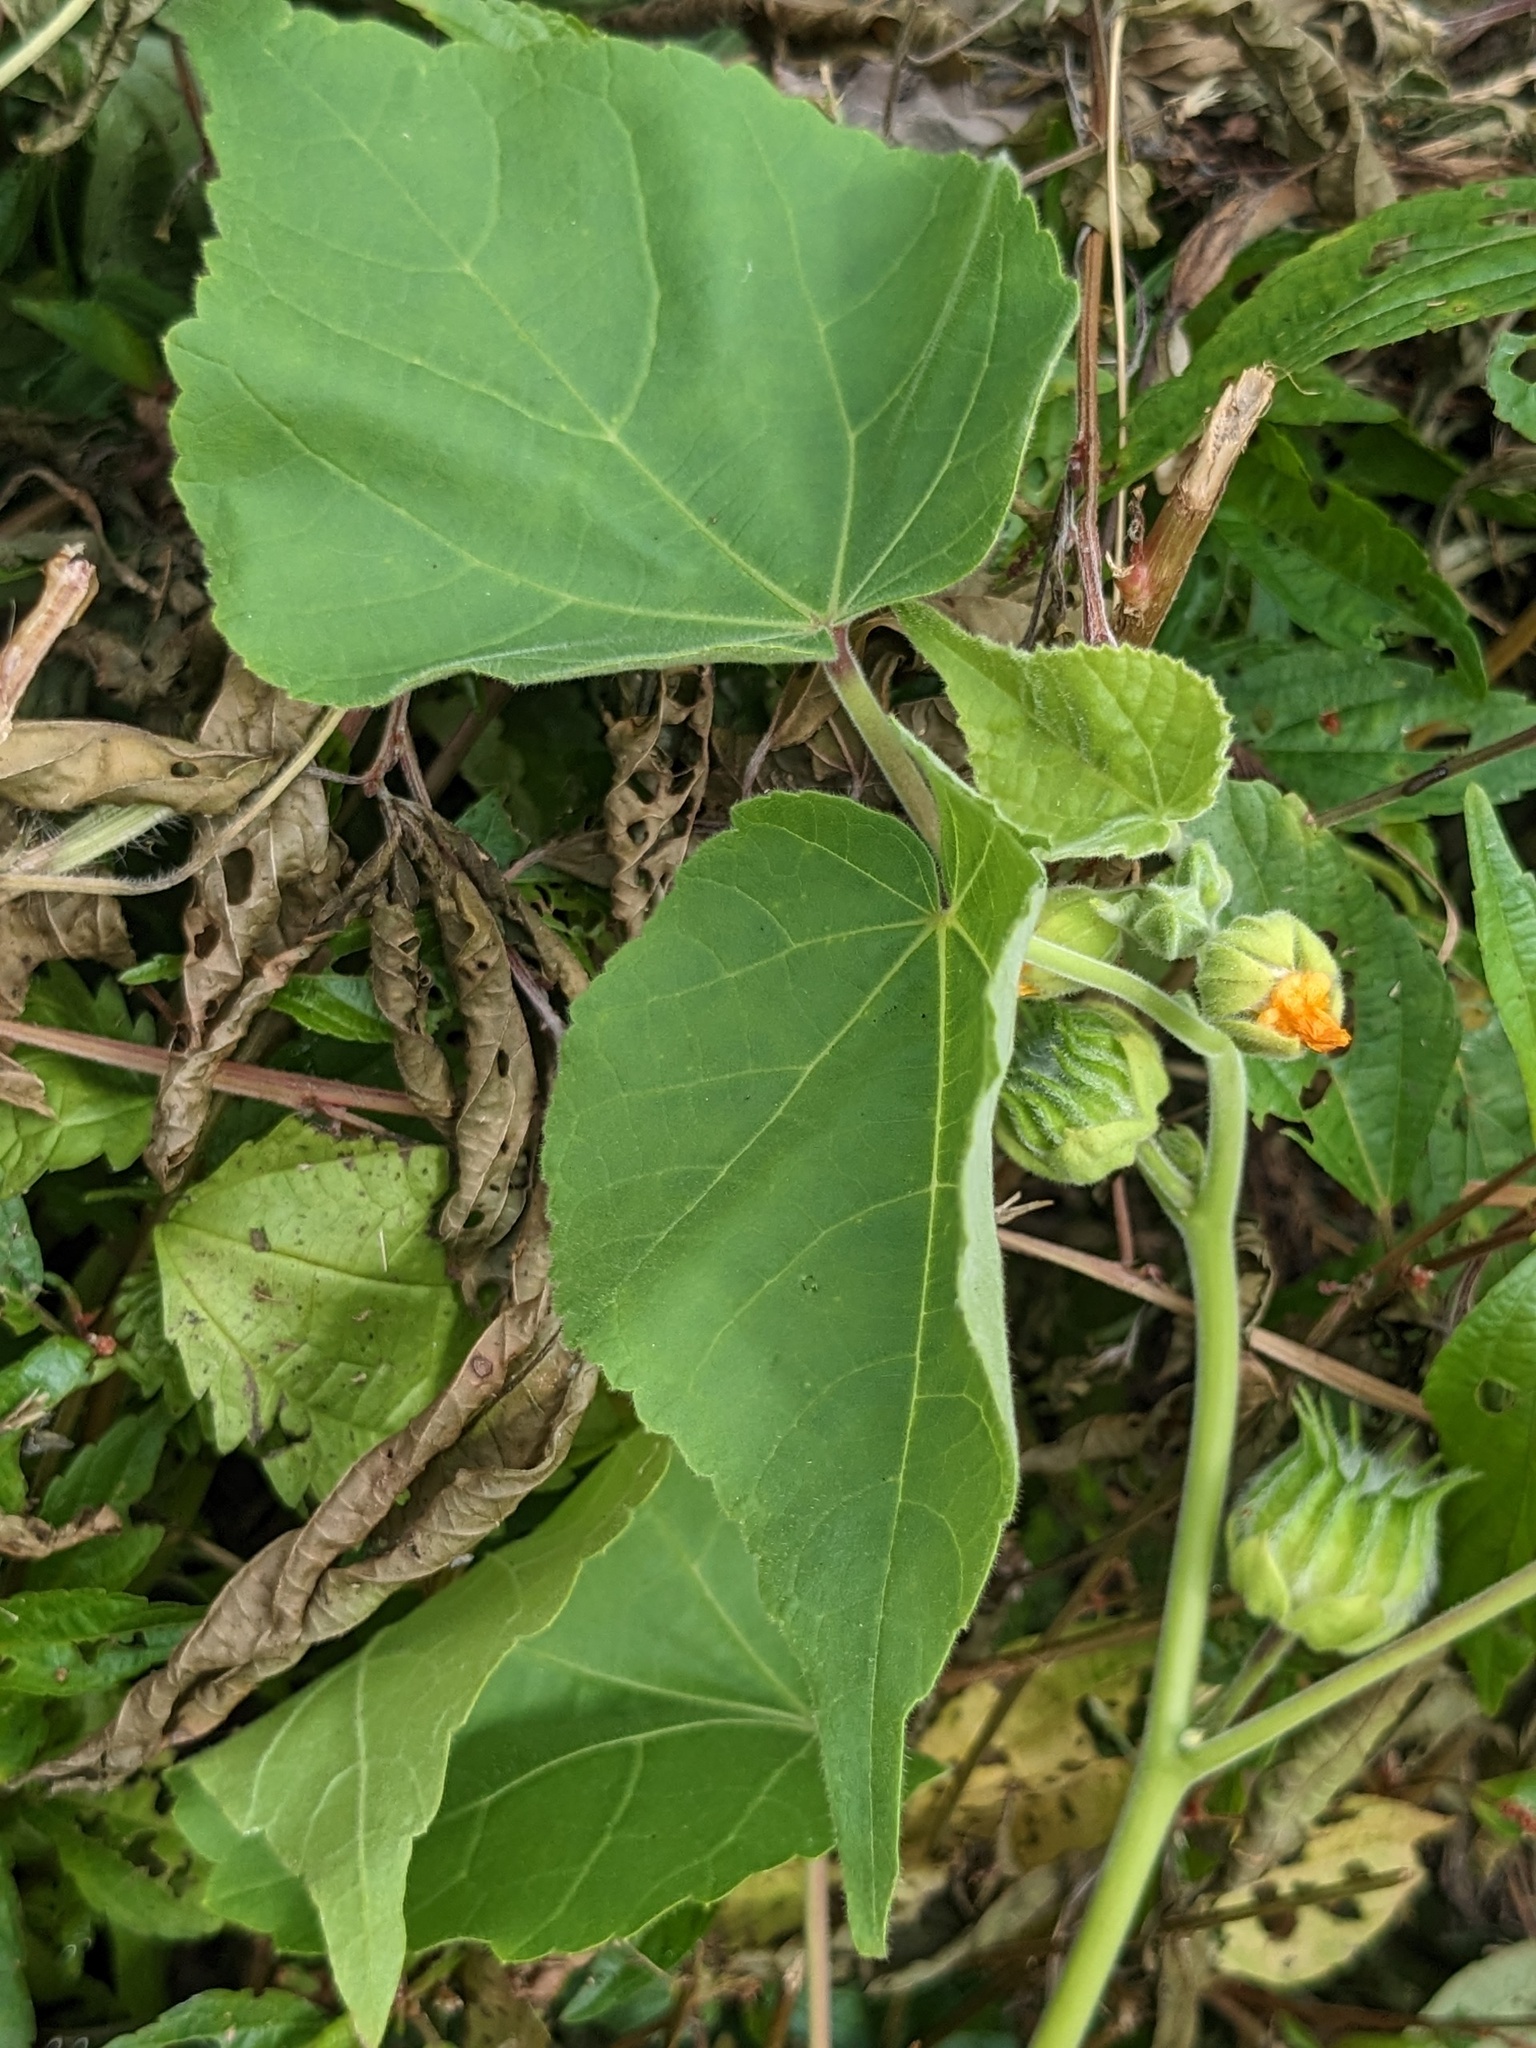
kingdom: Plantae
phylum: Tracheophyta
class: Magnoliopsida
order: Malvales
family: Malvaceae
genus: Abutilon
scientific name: Abutilon theophrasti
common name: Velvetleaf
